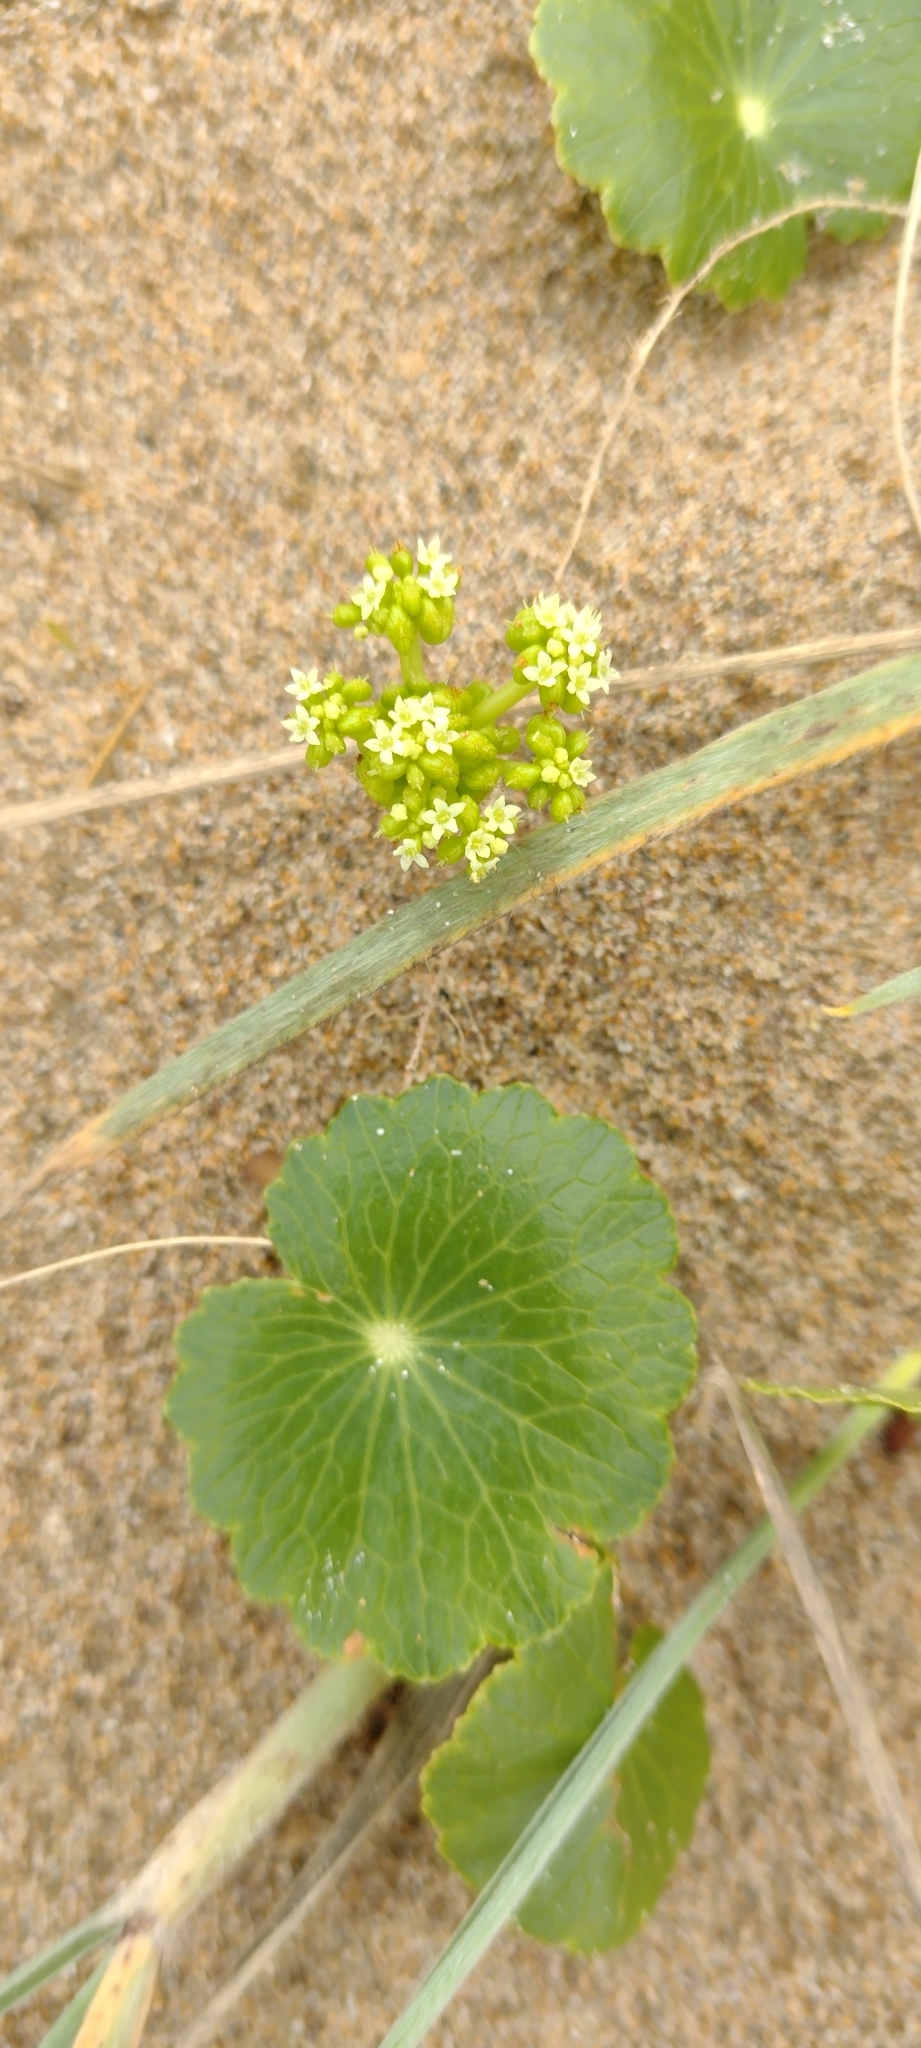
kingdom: Plantae
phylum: Tracheophyta
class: Magnoliopsida
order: Apiales
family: Araliaceae
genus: Hydrocotyle
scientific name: Hydrocotyle bonariensis
